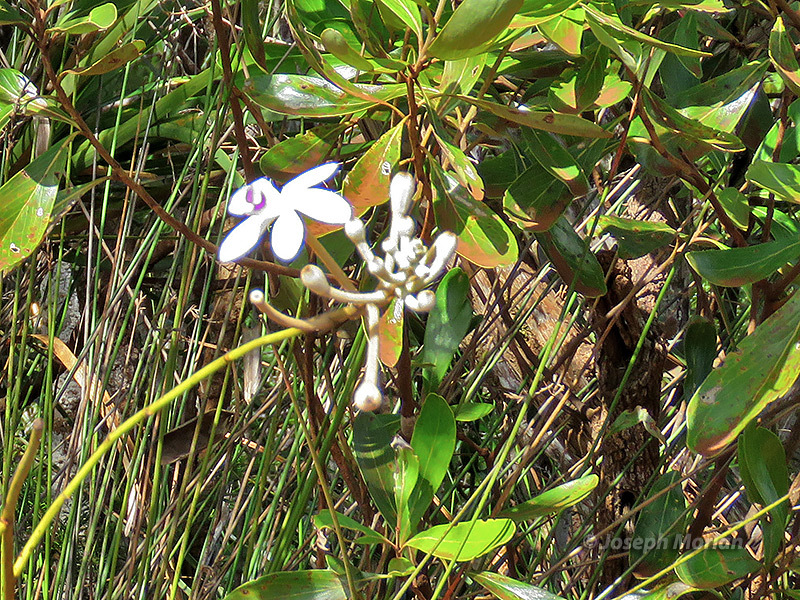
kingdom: Plantae
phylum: Tracheophyta
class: Liliopsida
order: Asparagales
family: Orchidaceae
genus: Eriaxis
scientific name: Eriaxis rigida
